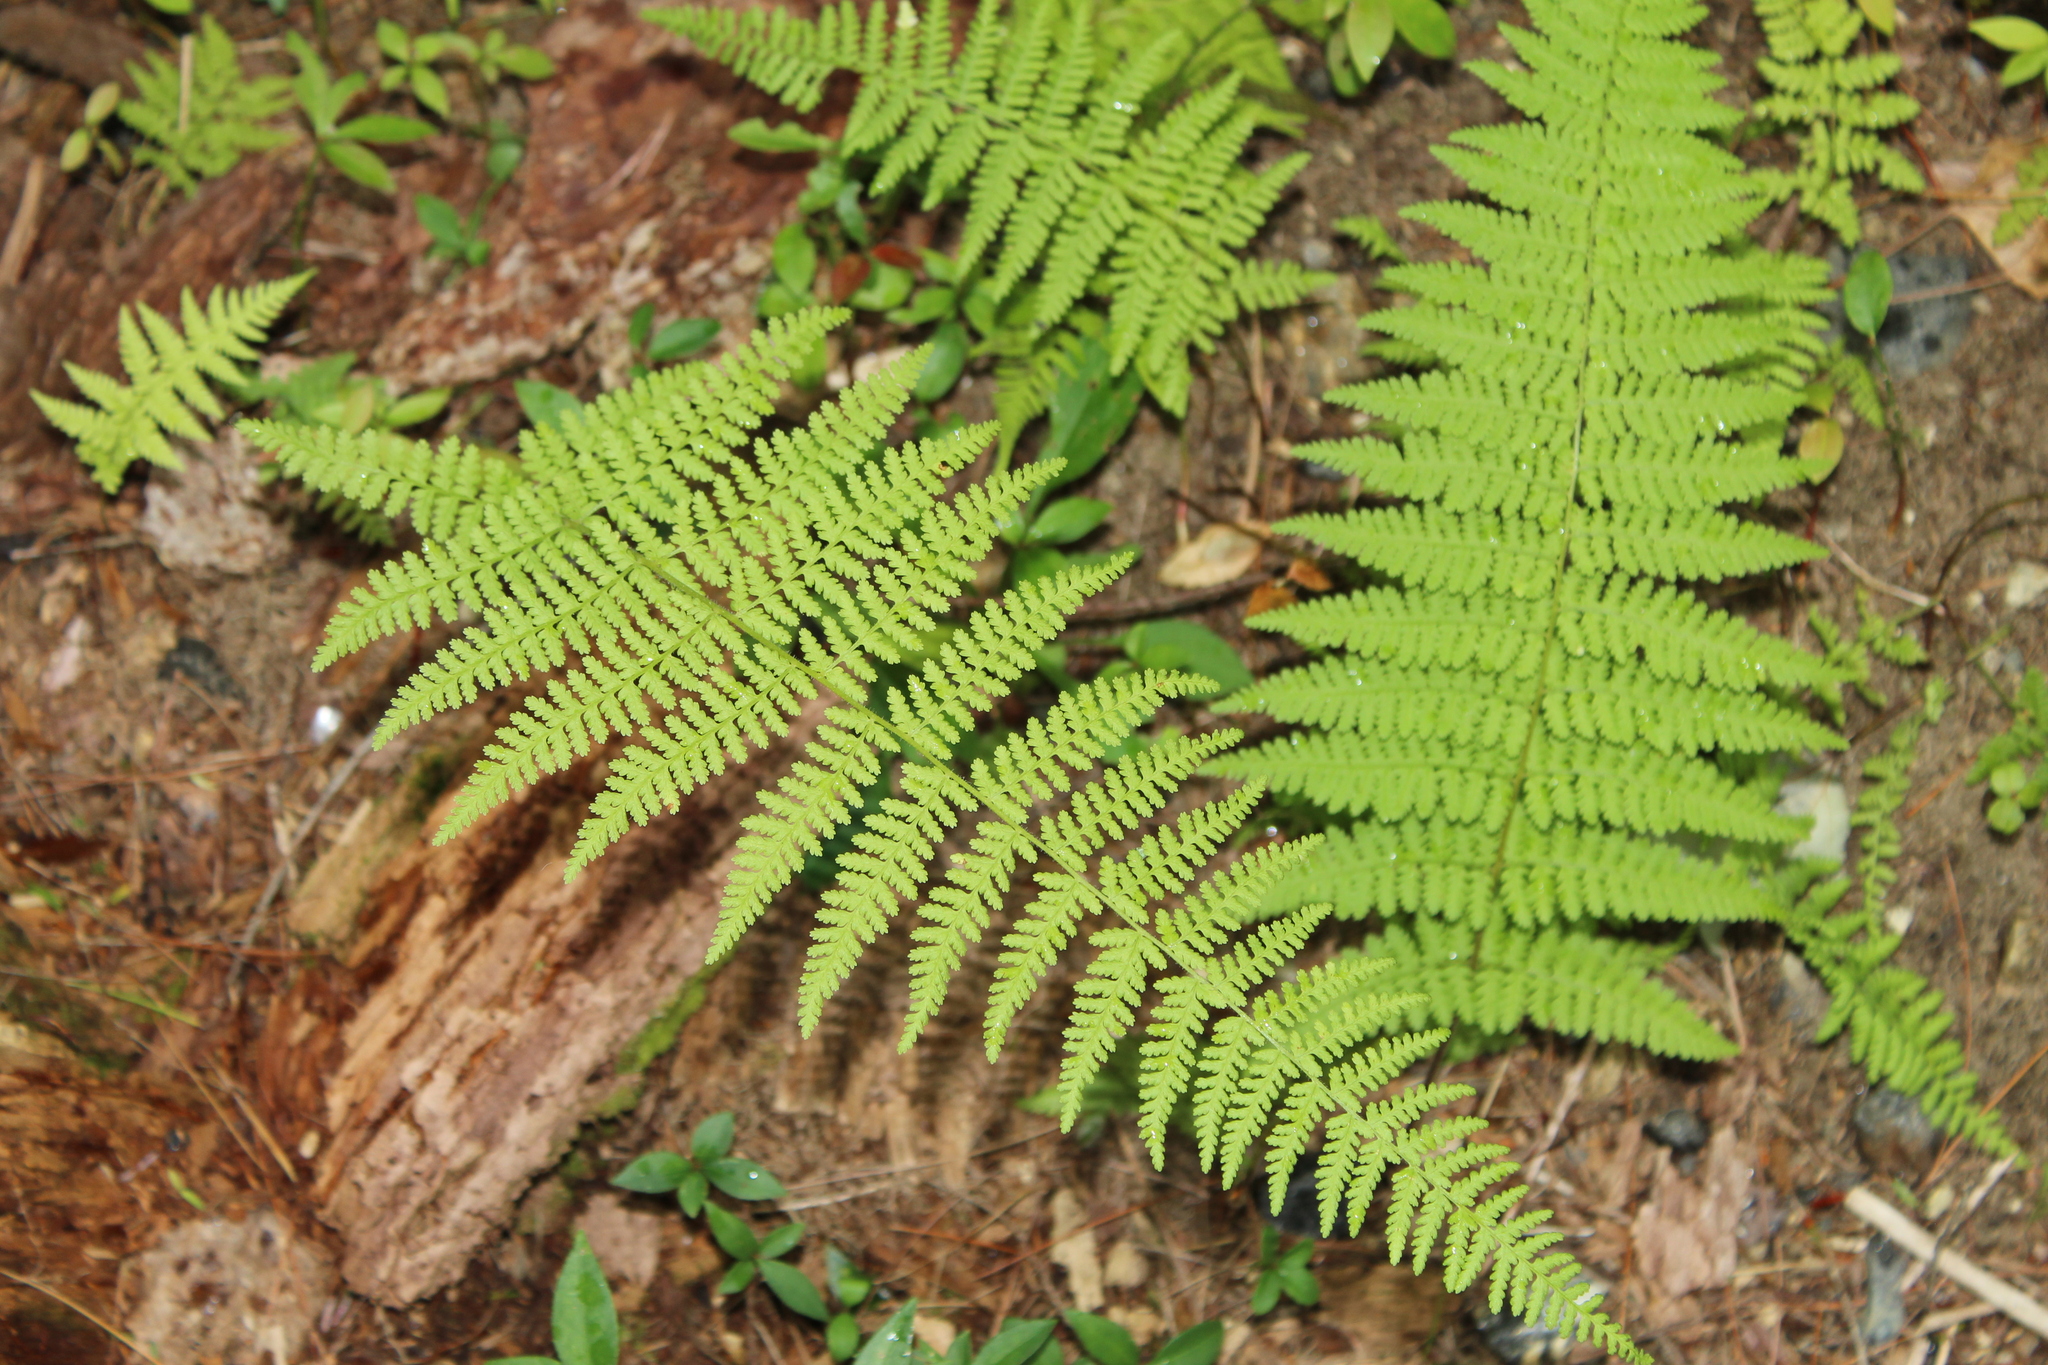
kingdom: Plantae
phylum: Tracheophyta
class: Polypodiopsida
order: Polypodiales
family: Dennstaedtiaceae
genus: Sitobolium
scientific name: Sitobolium punctilobum
